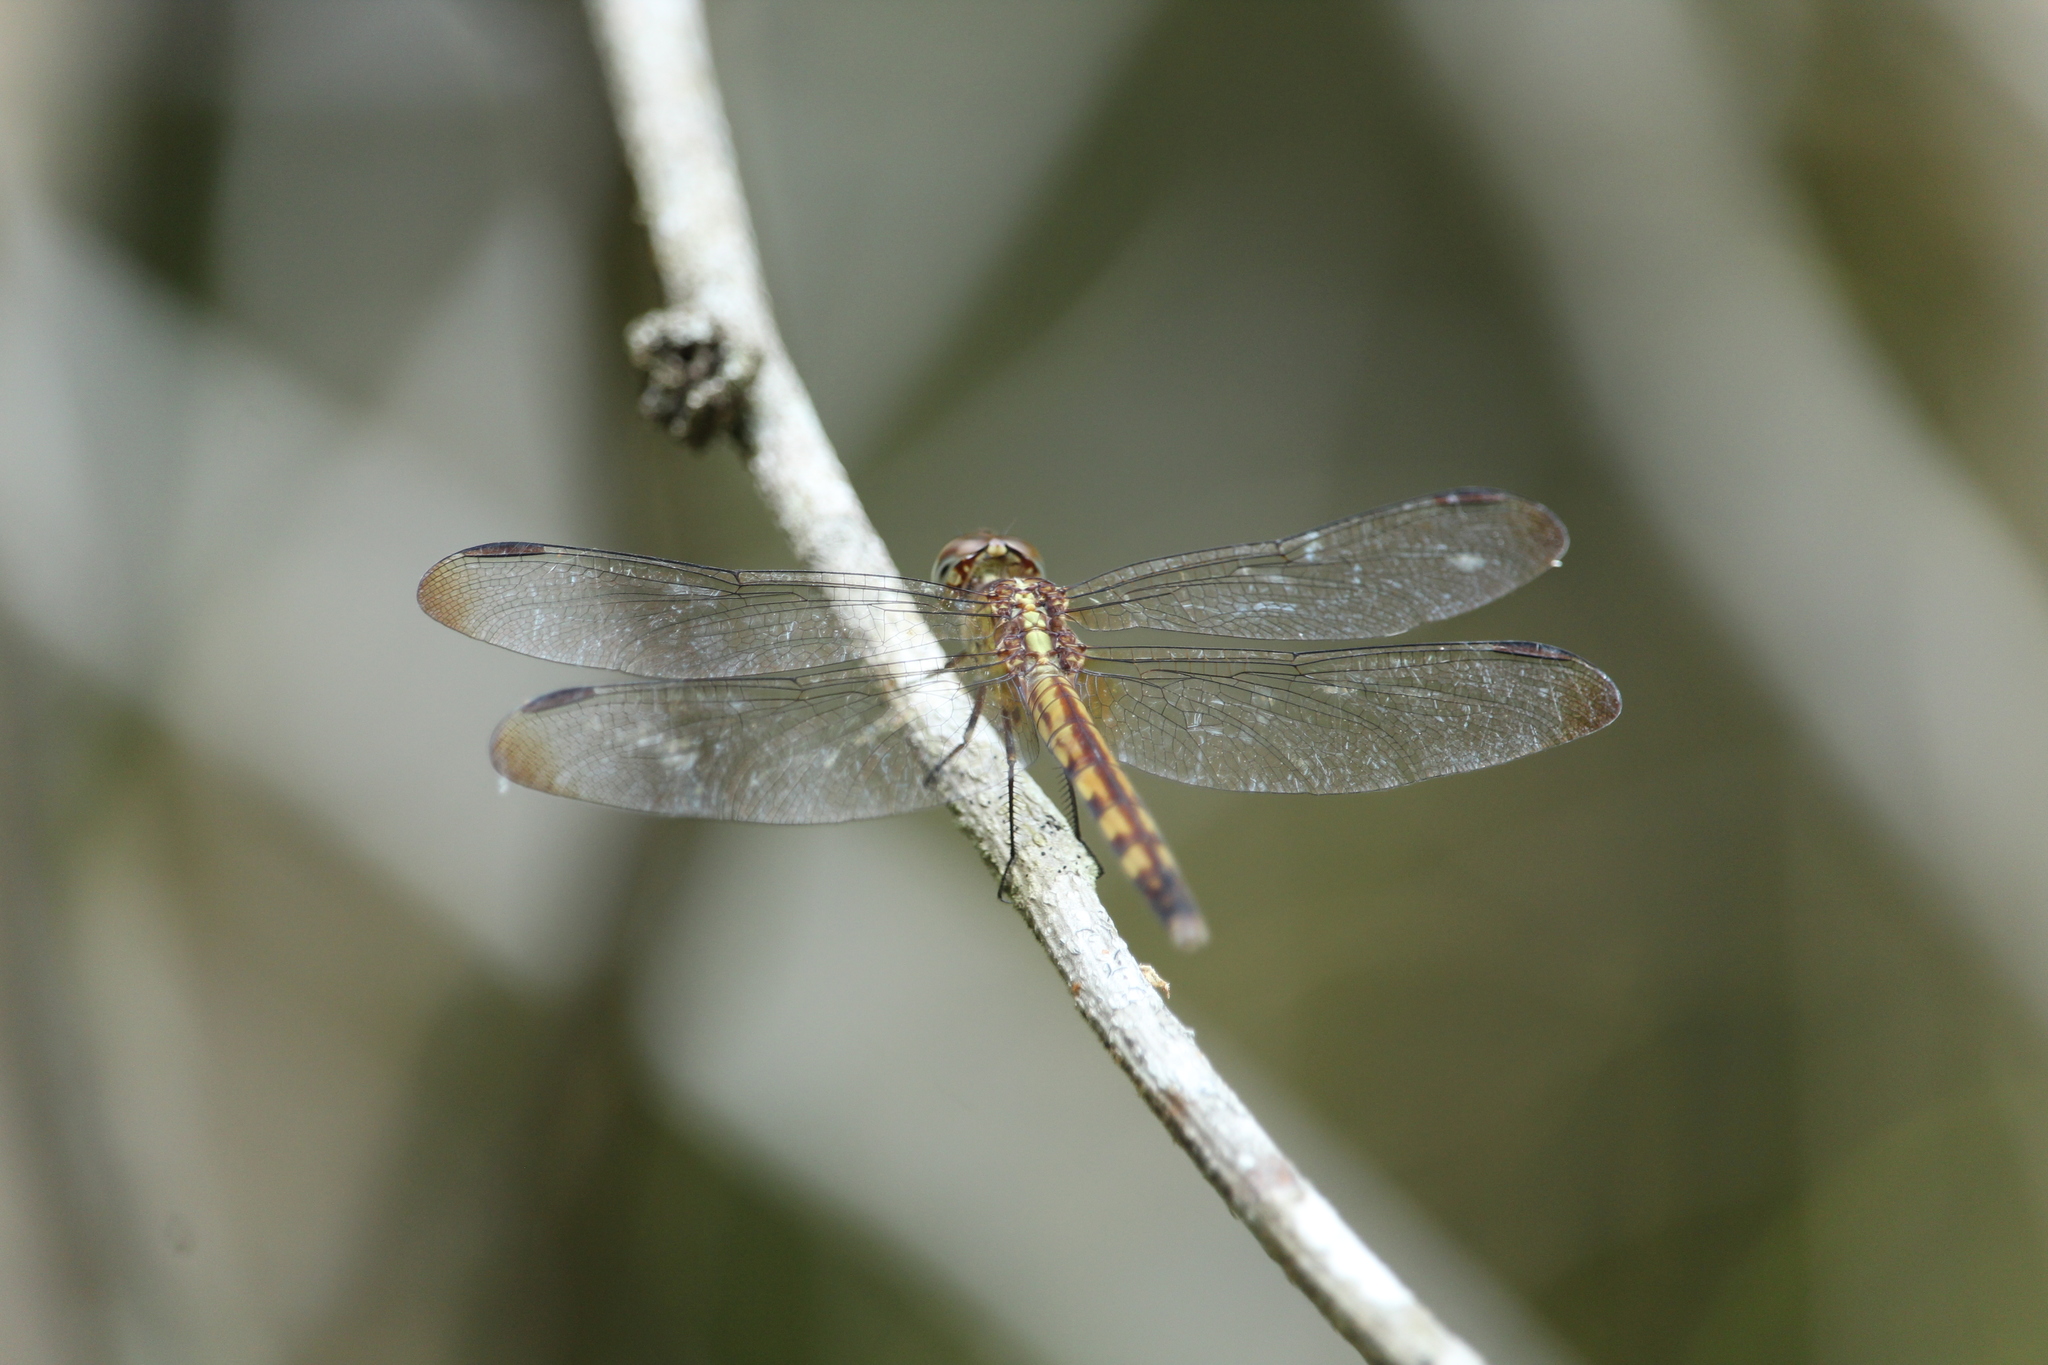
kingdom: Animalia
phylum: Arthropoda
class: Insecta
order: Odonata
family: Libellulidae
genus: Erythrodiplax
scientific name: Erythrodiplax umbrata
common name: Band-winged dragonlet
